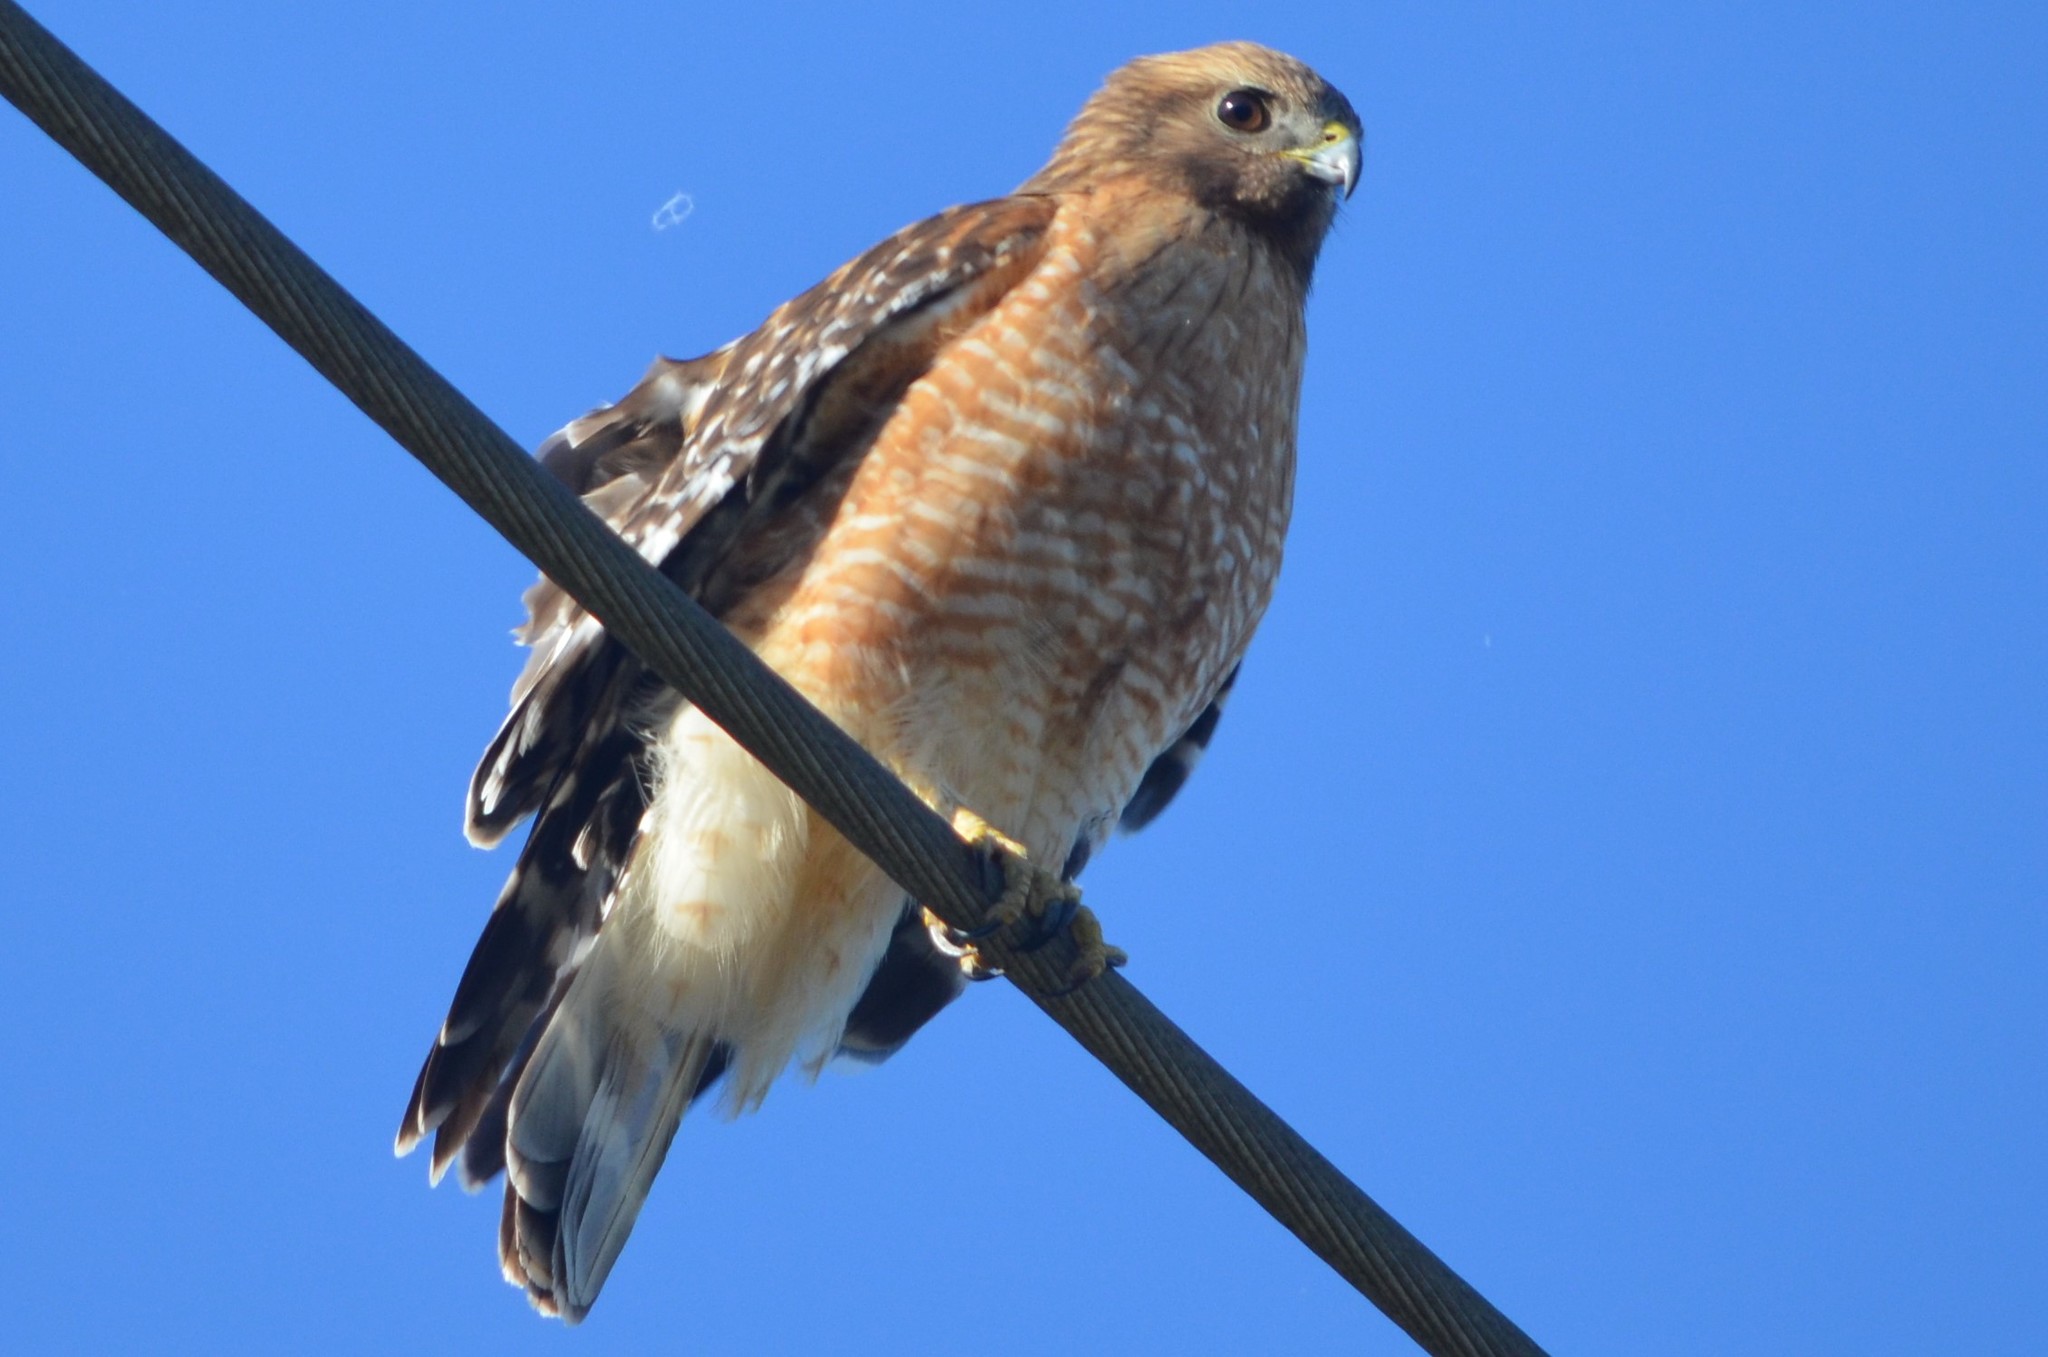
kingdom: Animalia
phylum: Chordata
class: Aves
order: Accipitriformes
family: Accipitridae
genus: Buteo
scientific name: Buteo lineatus
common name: Red-shouldered hawk
